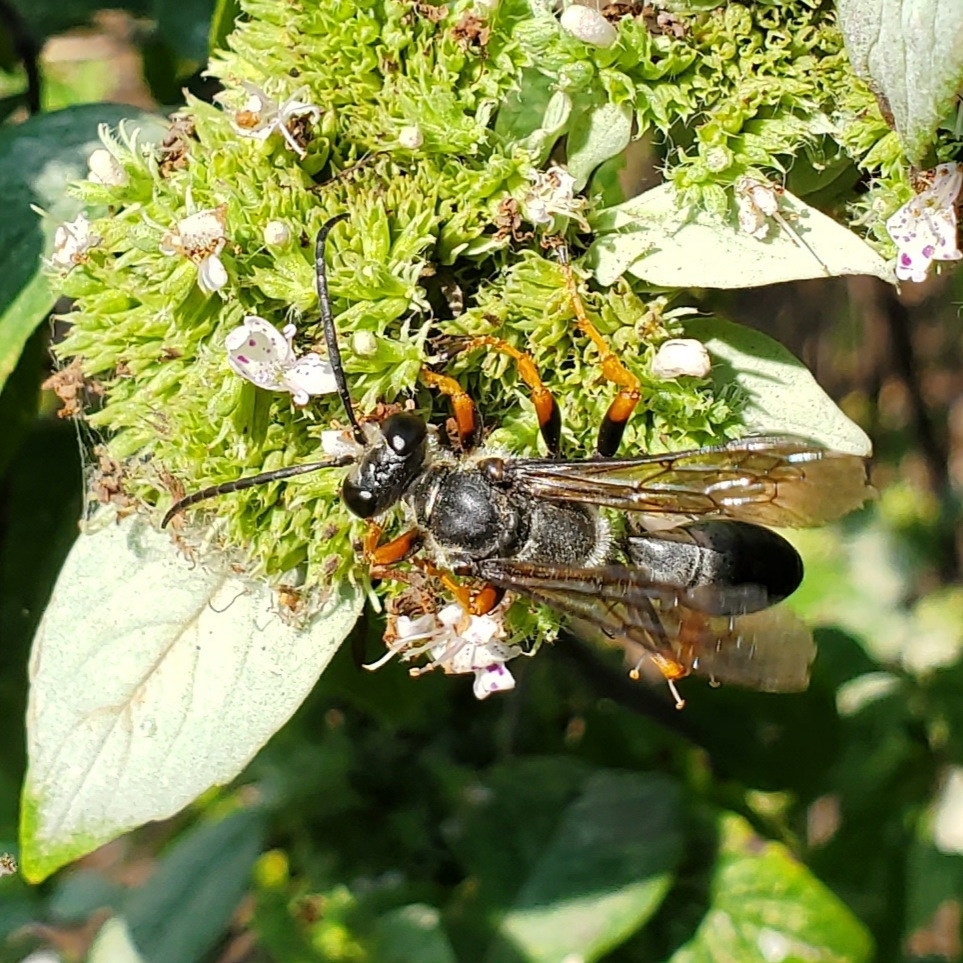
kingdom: Animalia
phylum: Arthropoda
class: Insecta
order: Hymenoptera
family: Sphecidae
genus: Sphex
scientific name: Sphex nudus
